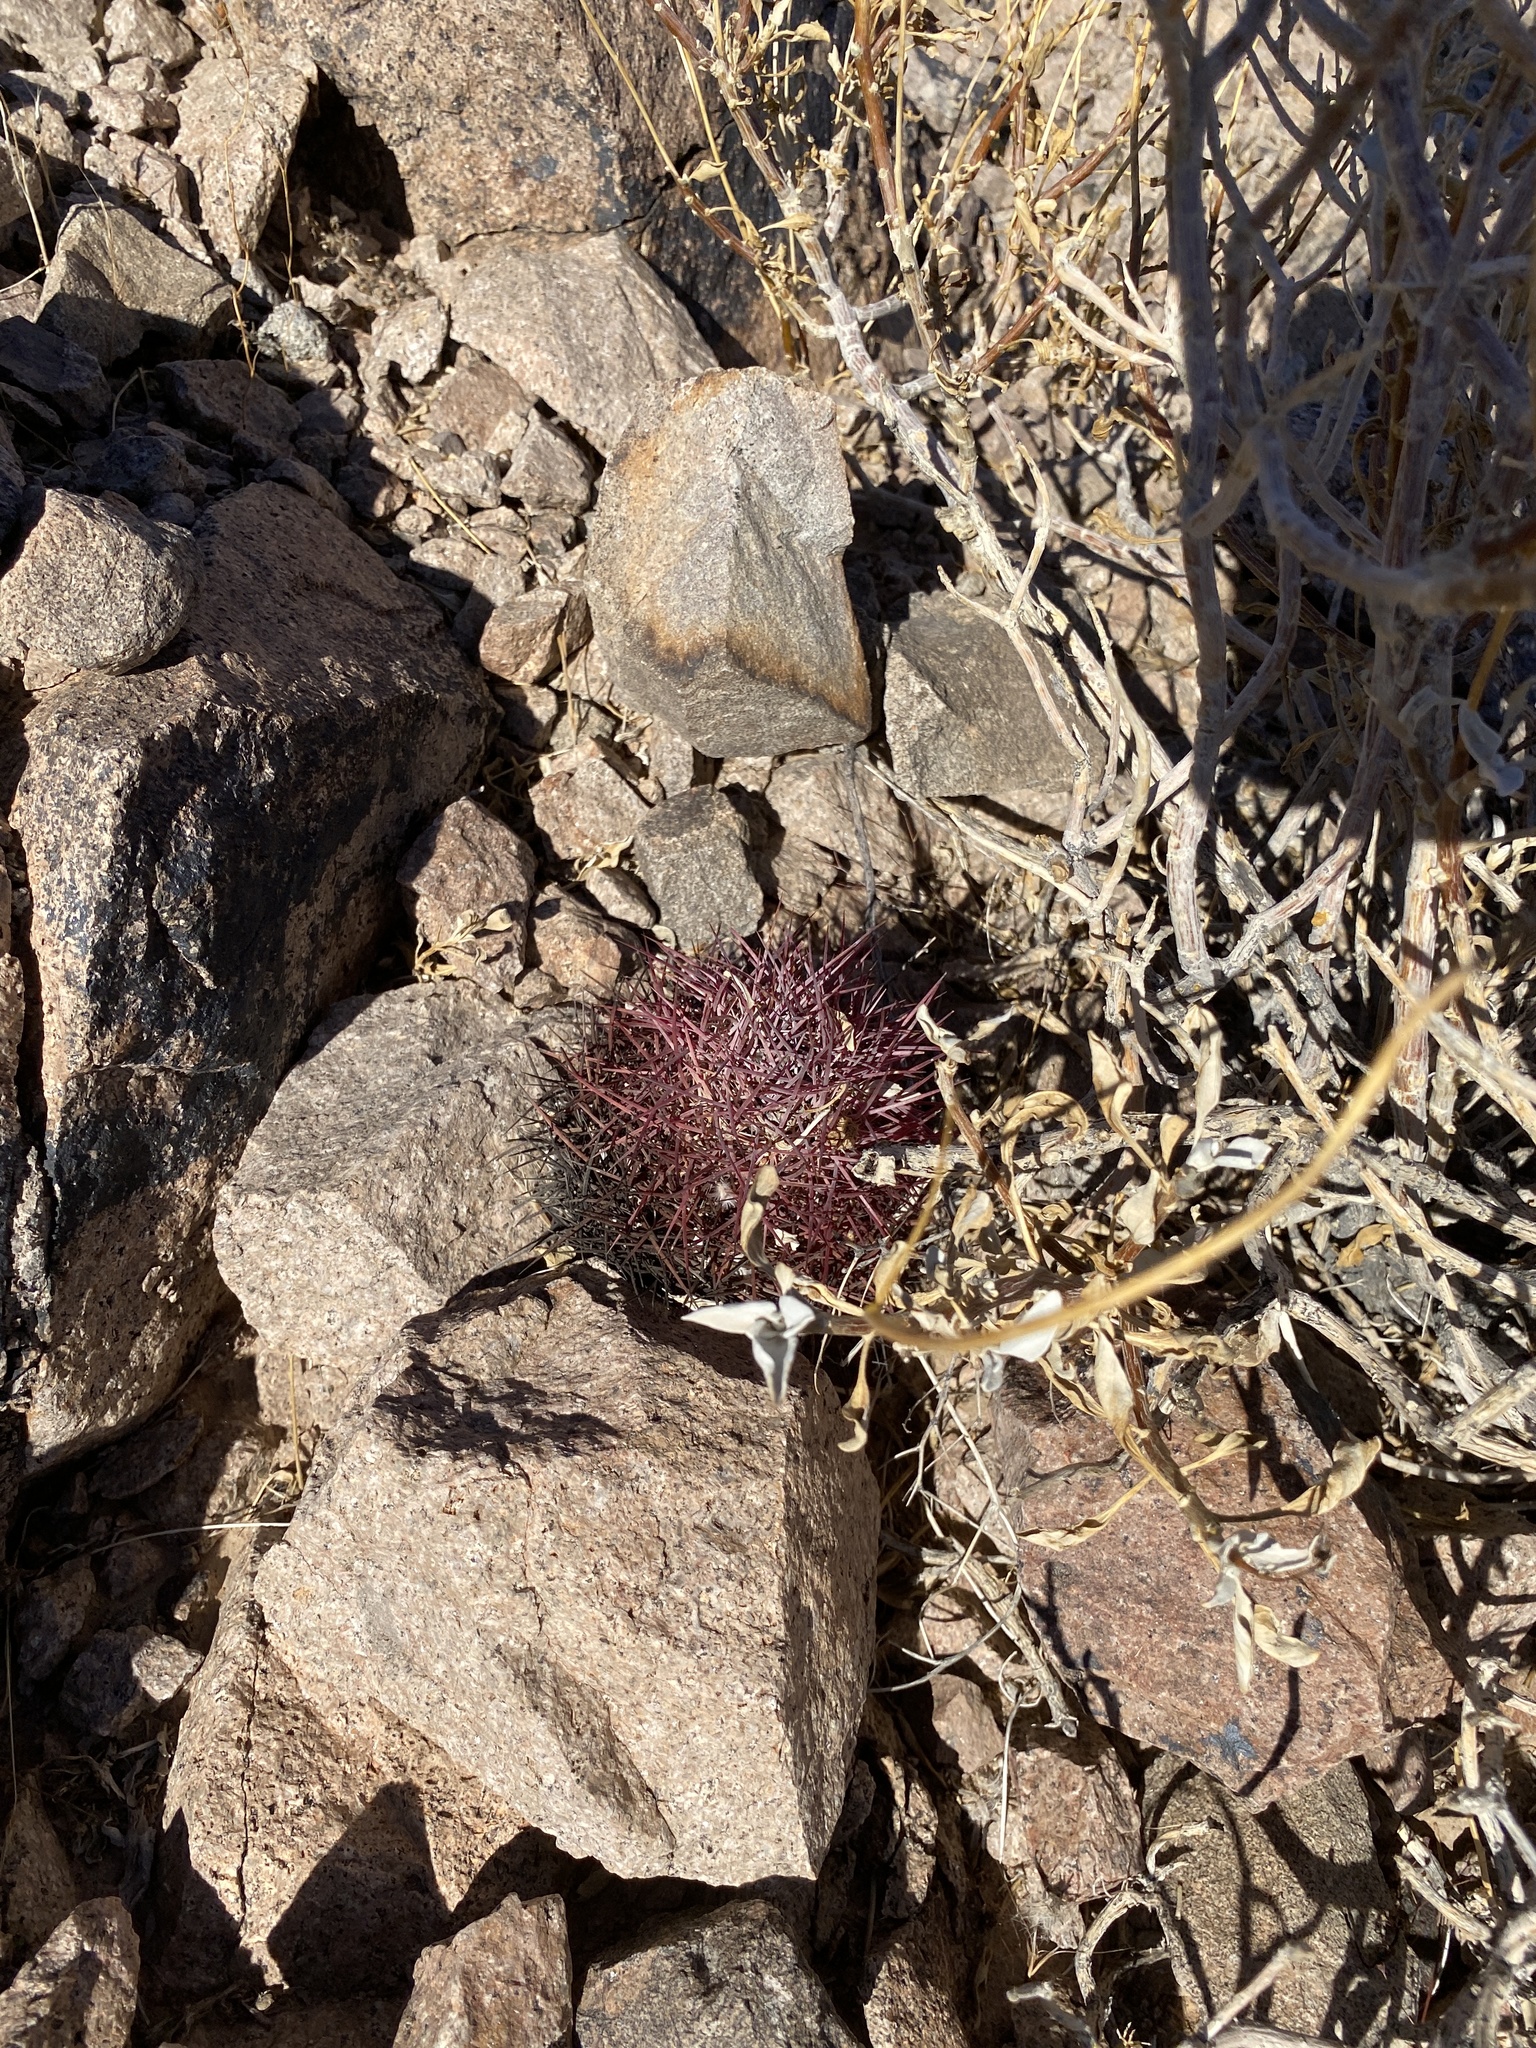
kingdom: Plantae
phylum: Tracheophyta
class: Magnoliopsida
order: Caryophyllales
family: Cactaceae
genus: Sclerocactus
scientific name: Sclerocactus johnsonii
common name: Eight-spine fishhook cactus
